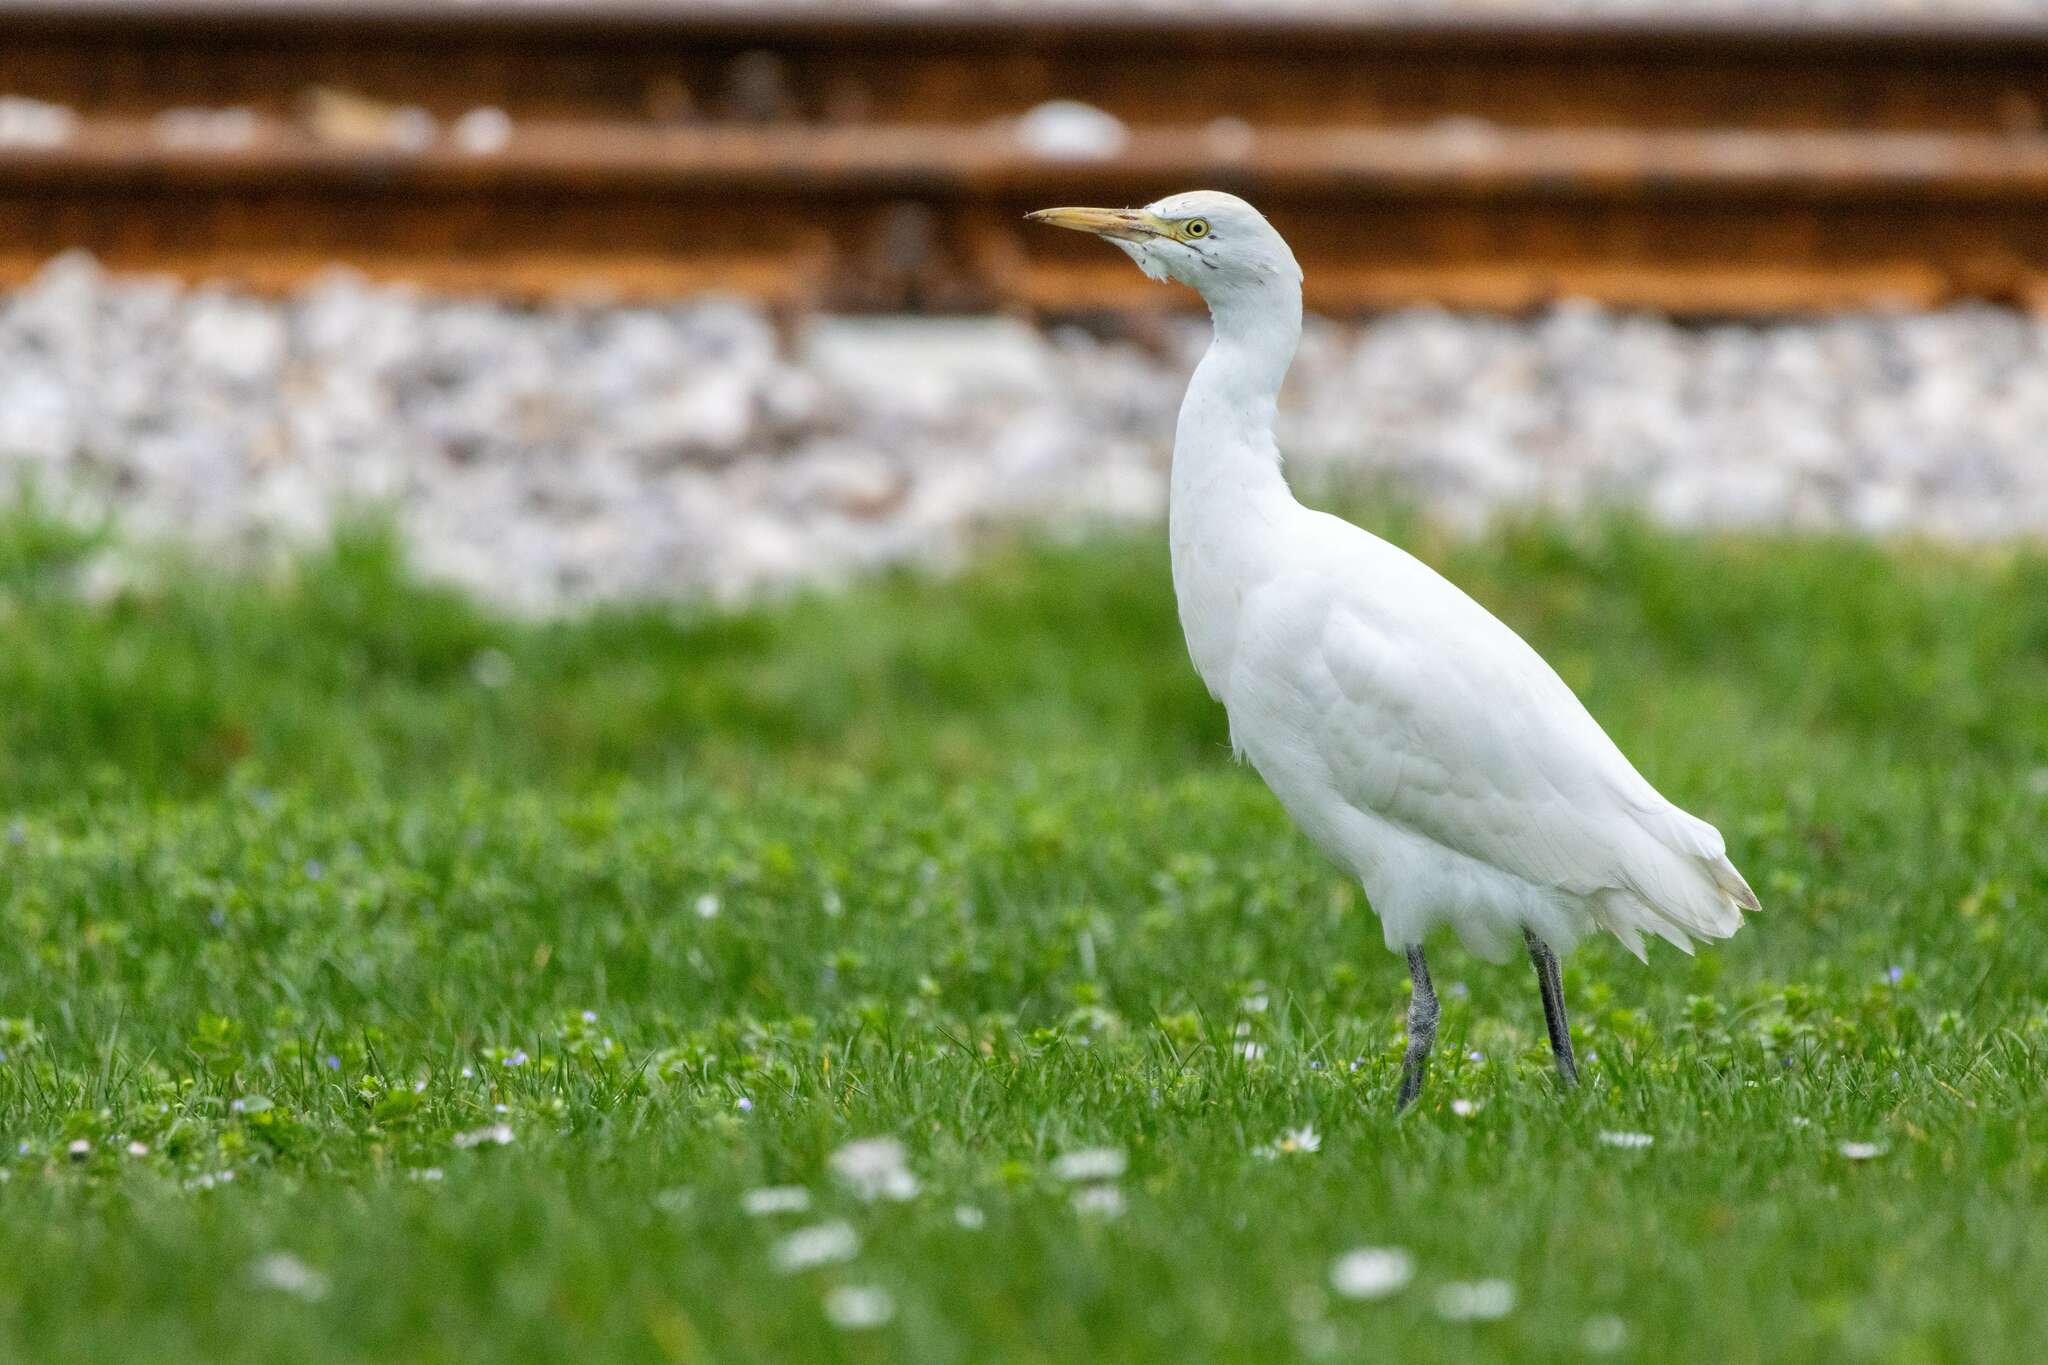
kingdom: Animalia
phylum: Chordata
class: Aves
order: Pelecaniformes
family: Ardeidae
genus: Bubulcus
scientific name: Bubulcus ibis
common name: Cattle egret
